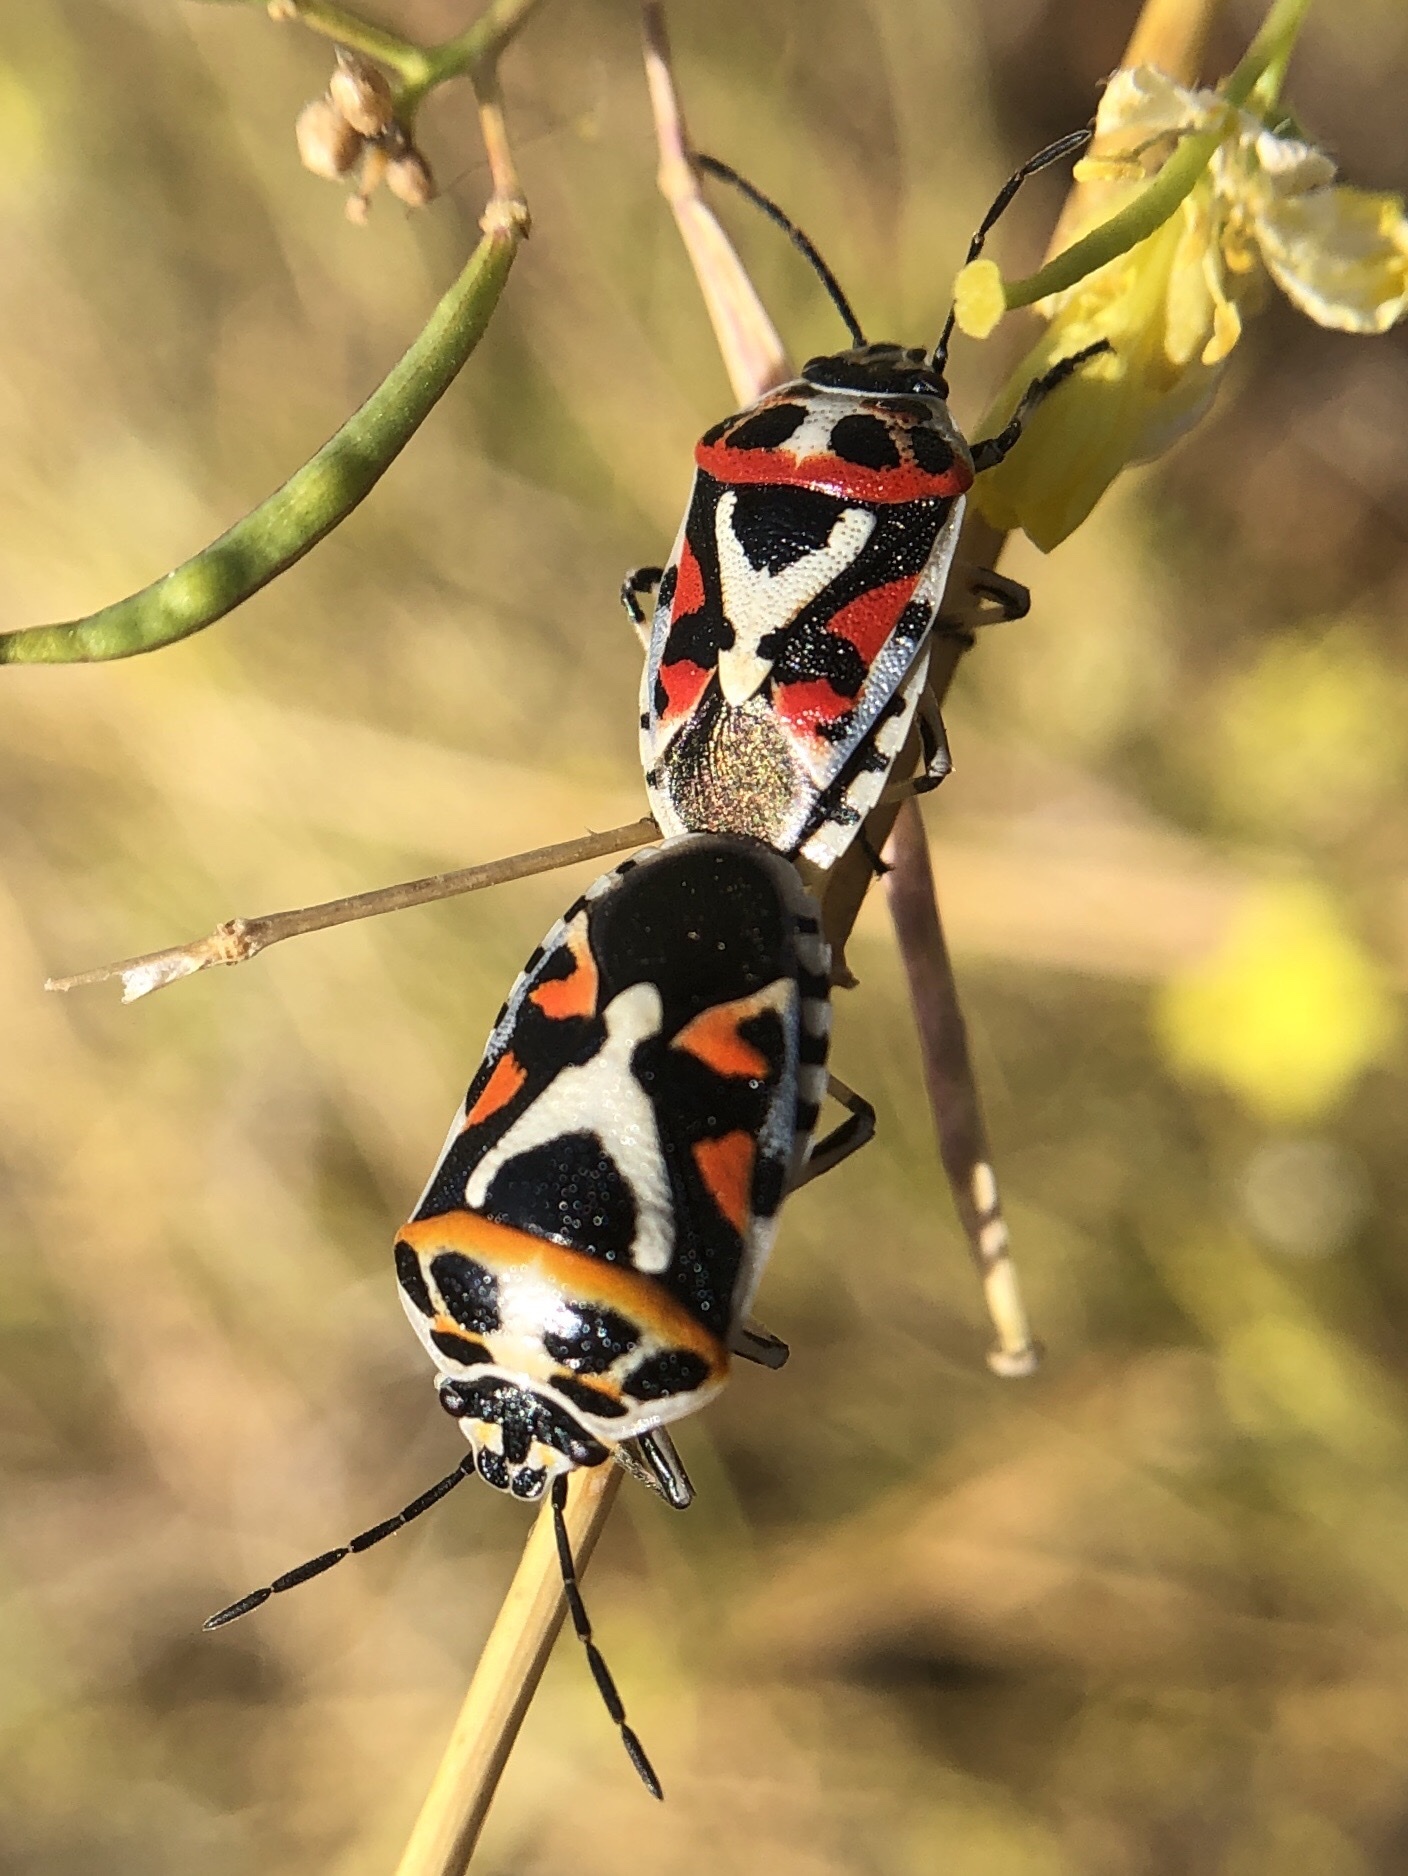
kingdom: Animalia
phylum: Arthropoda
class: Insecta
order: Hemiptera
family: Pentatomidae
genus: Eurydema
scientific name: Eurydema ornata
